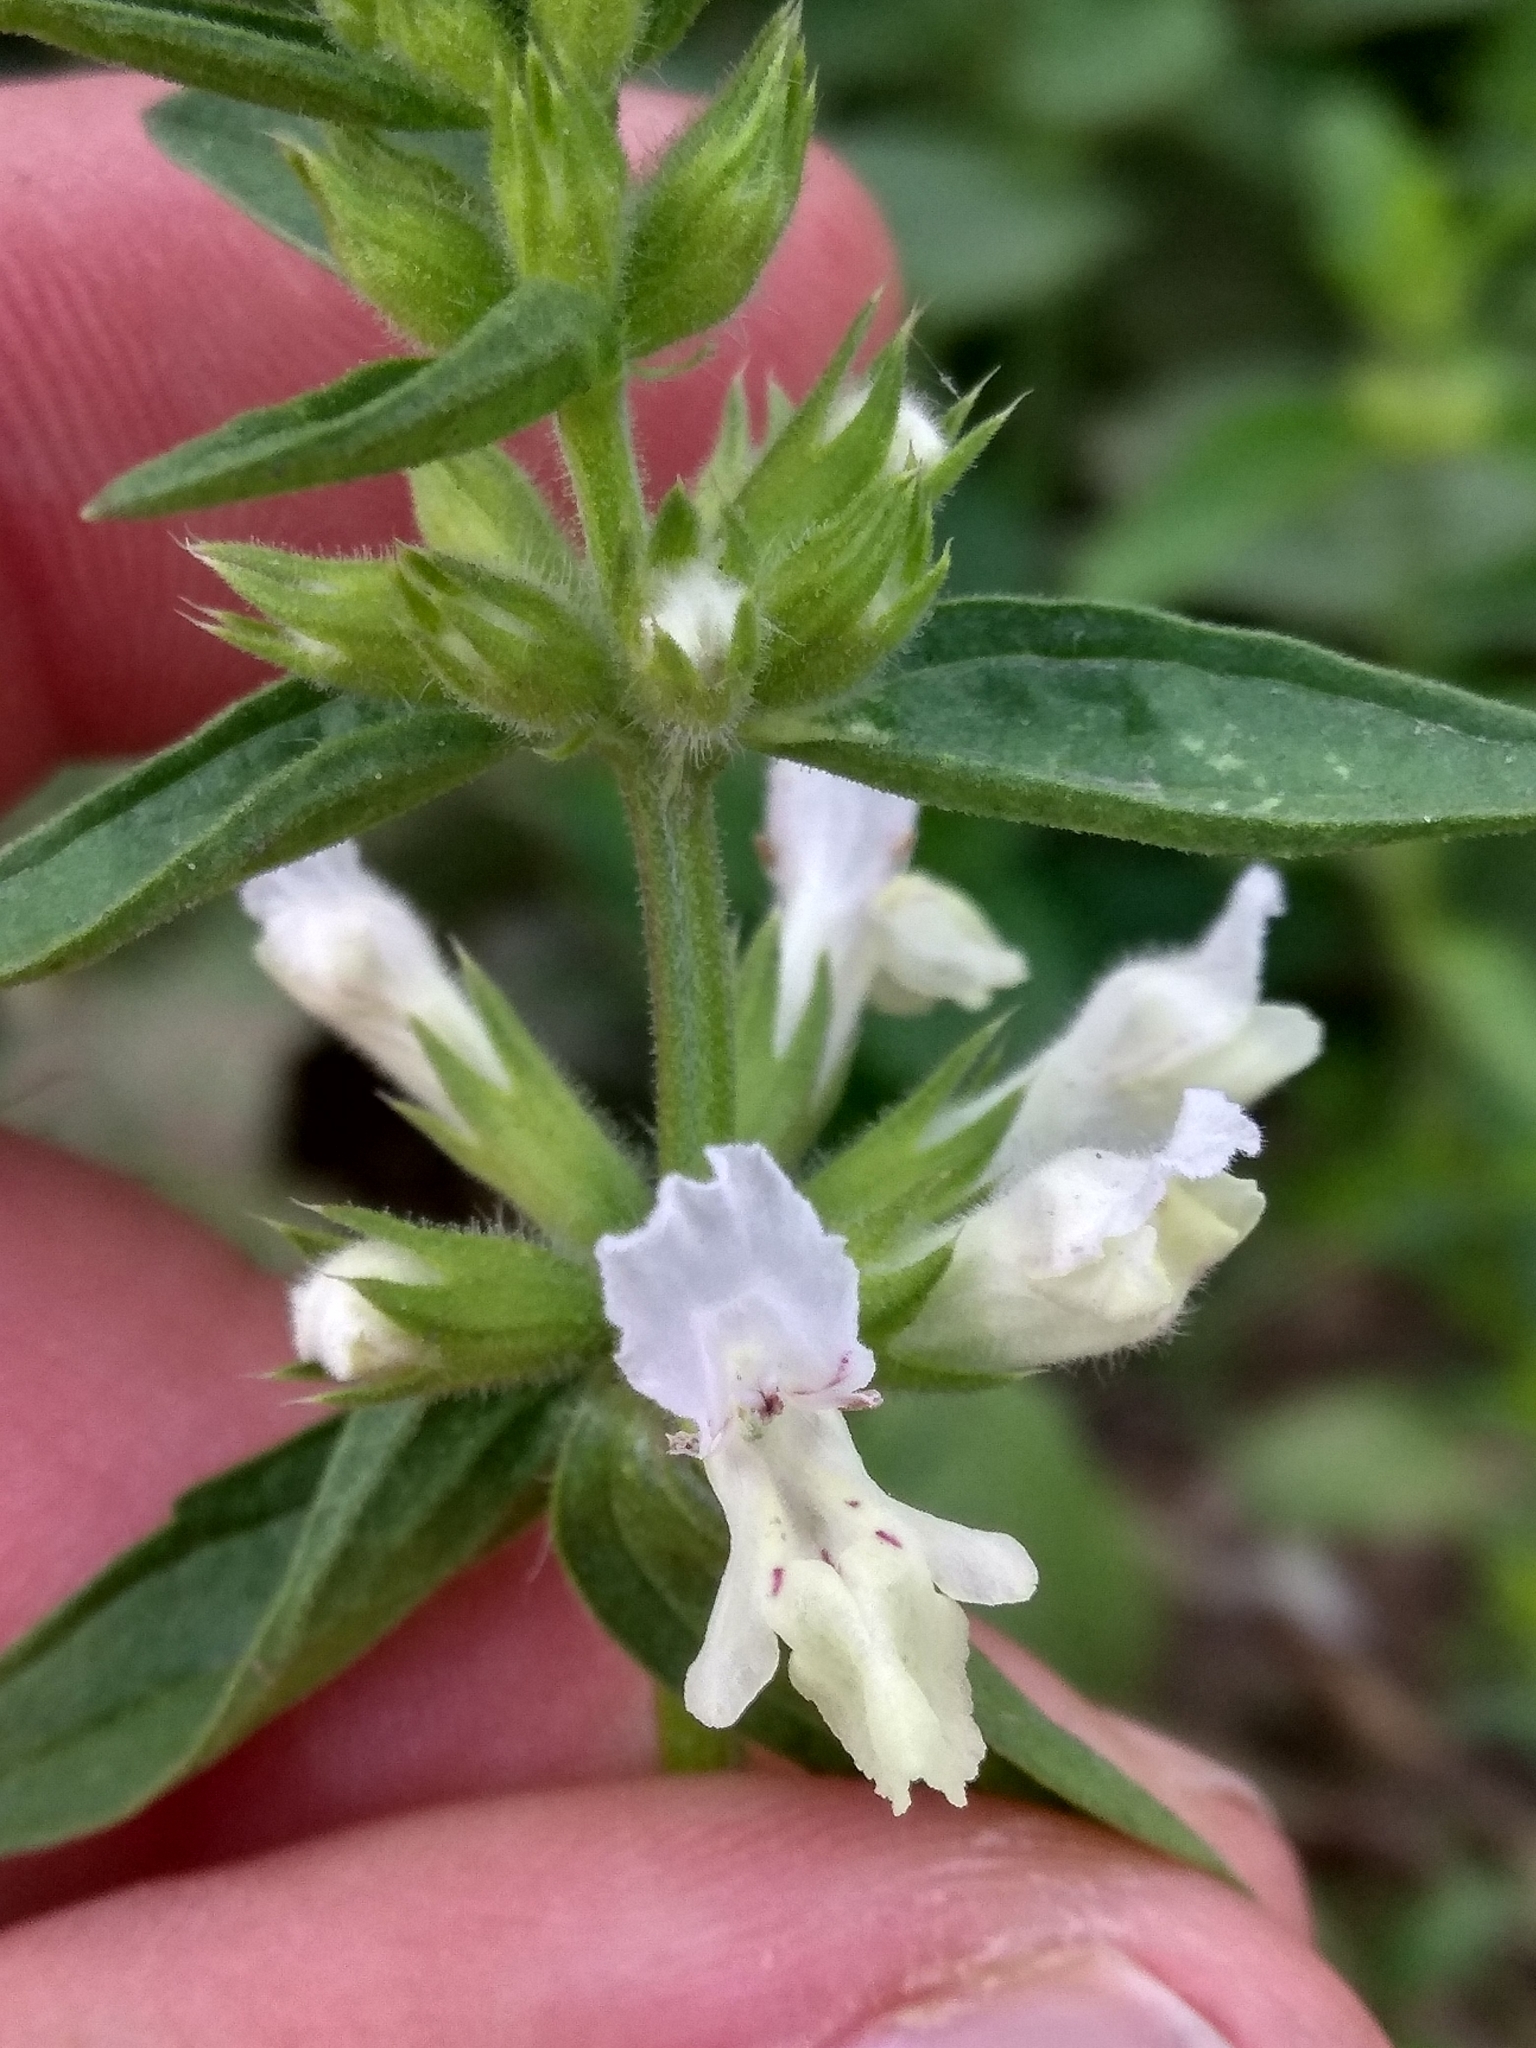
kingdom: Plantae
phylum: Tracheophyta
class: Magnoliopsida
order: Lamiales
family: Lamiaceae
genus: Stachys
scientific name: Stachys annua
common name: Annual yellow-woundwort
